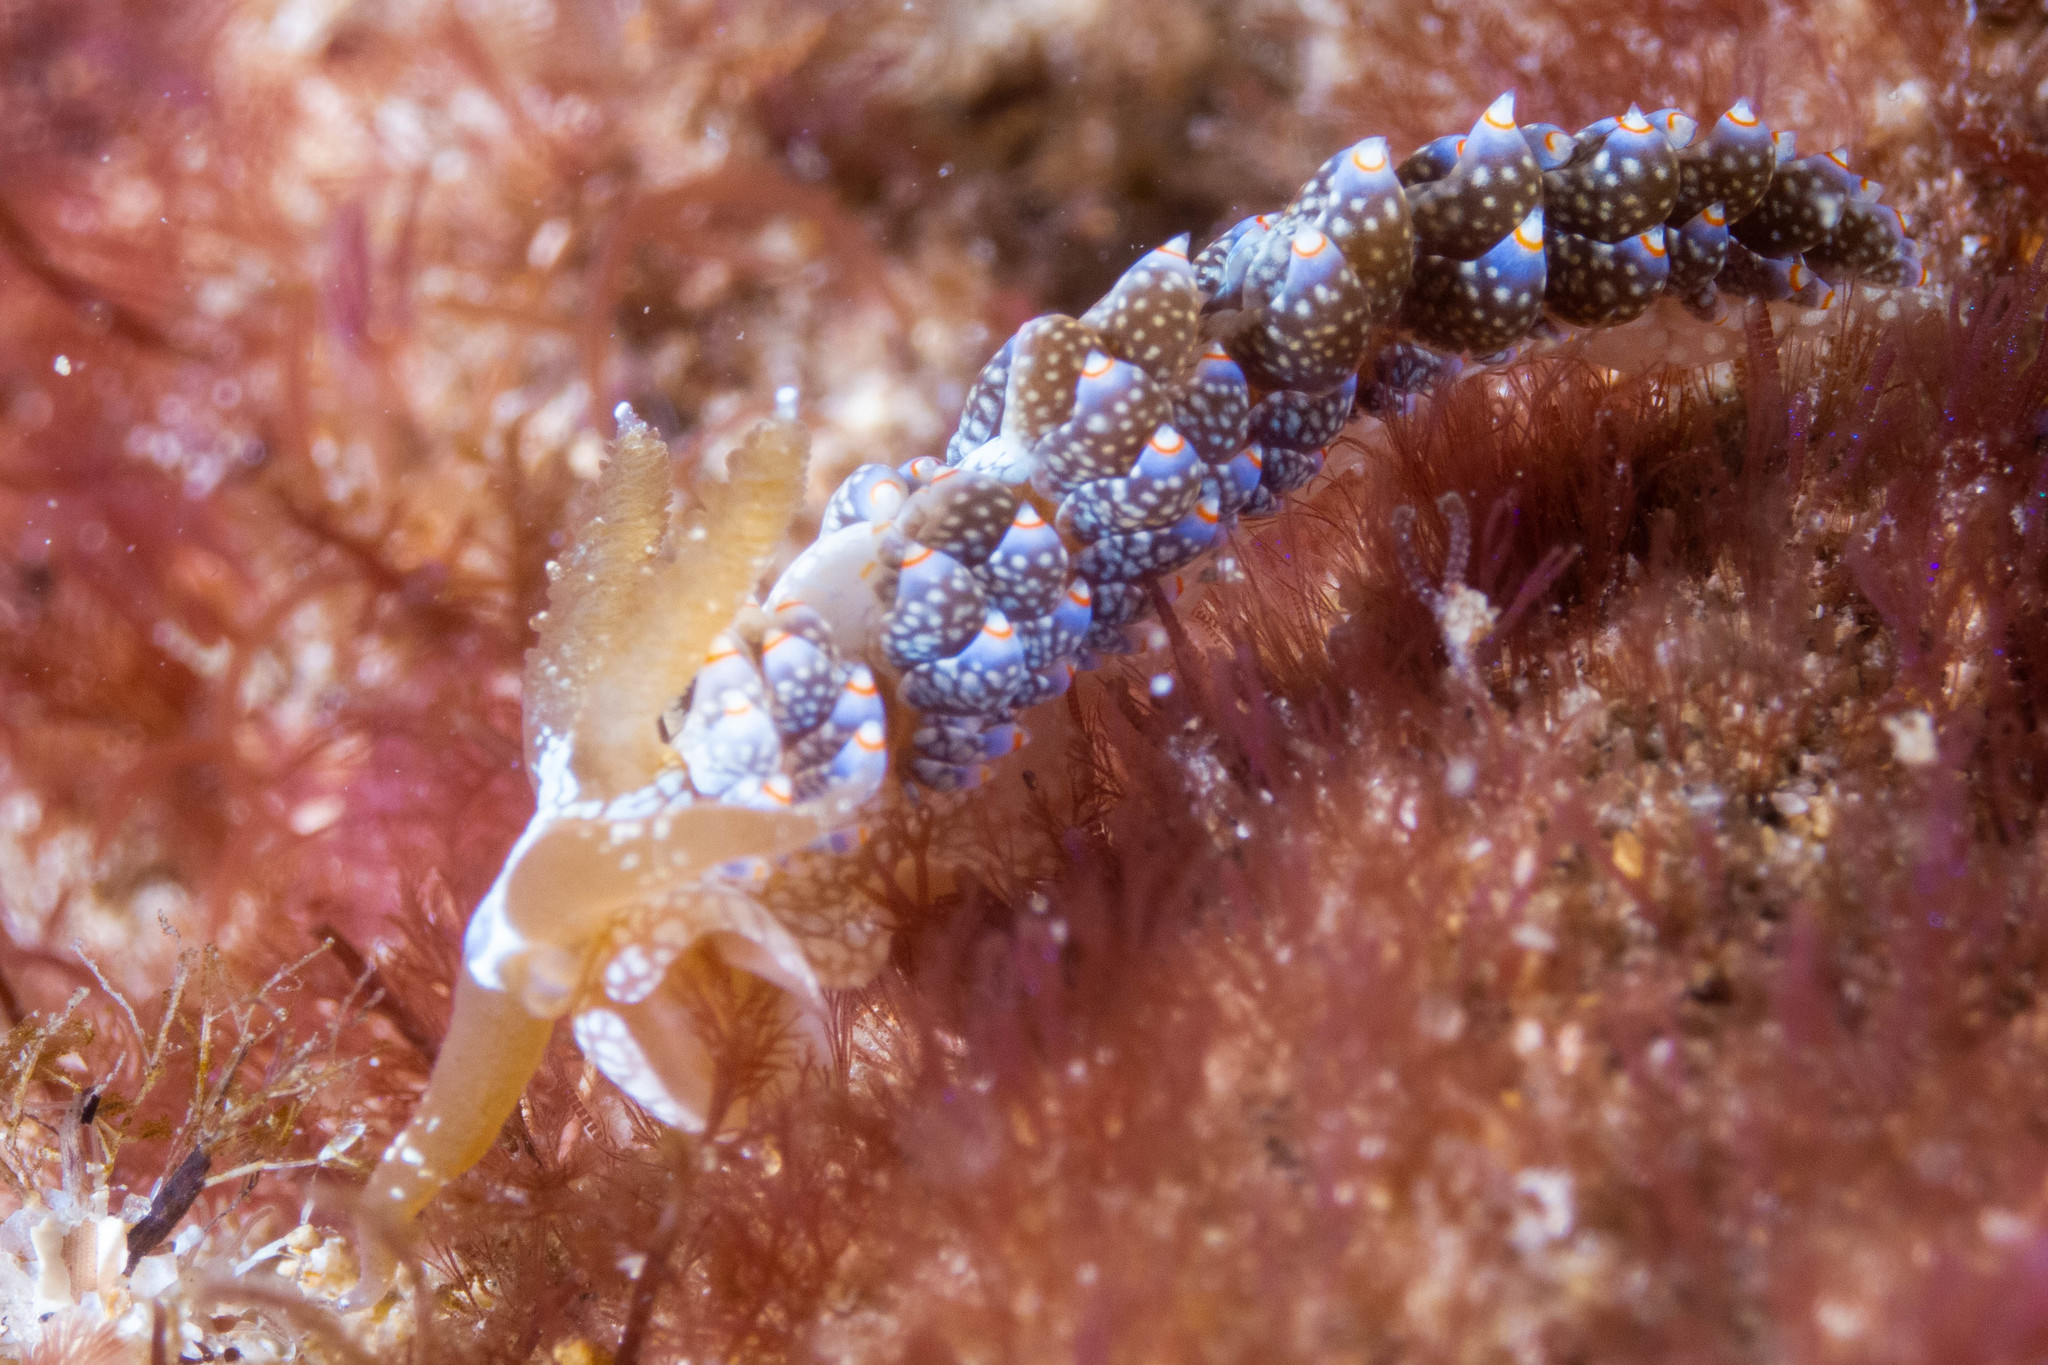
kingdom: Animalia
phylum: Mollusca
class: Gastropoda
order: Nudibranchia
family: Aeolidiidae
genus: Baeolidia
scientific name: Baeolidia australis
